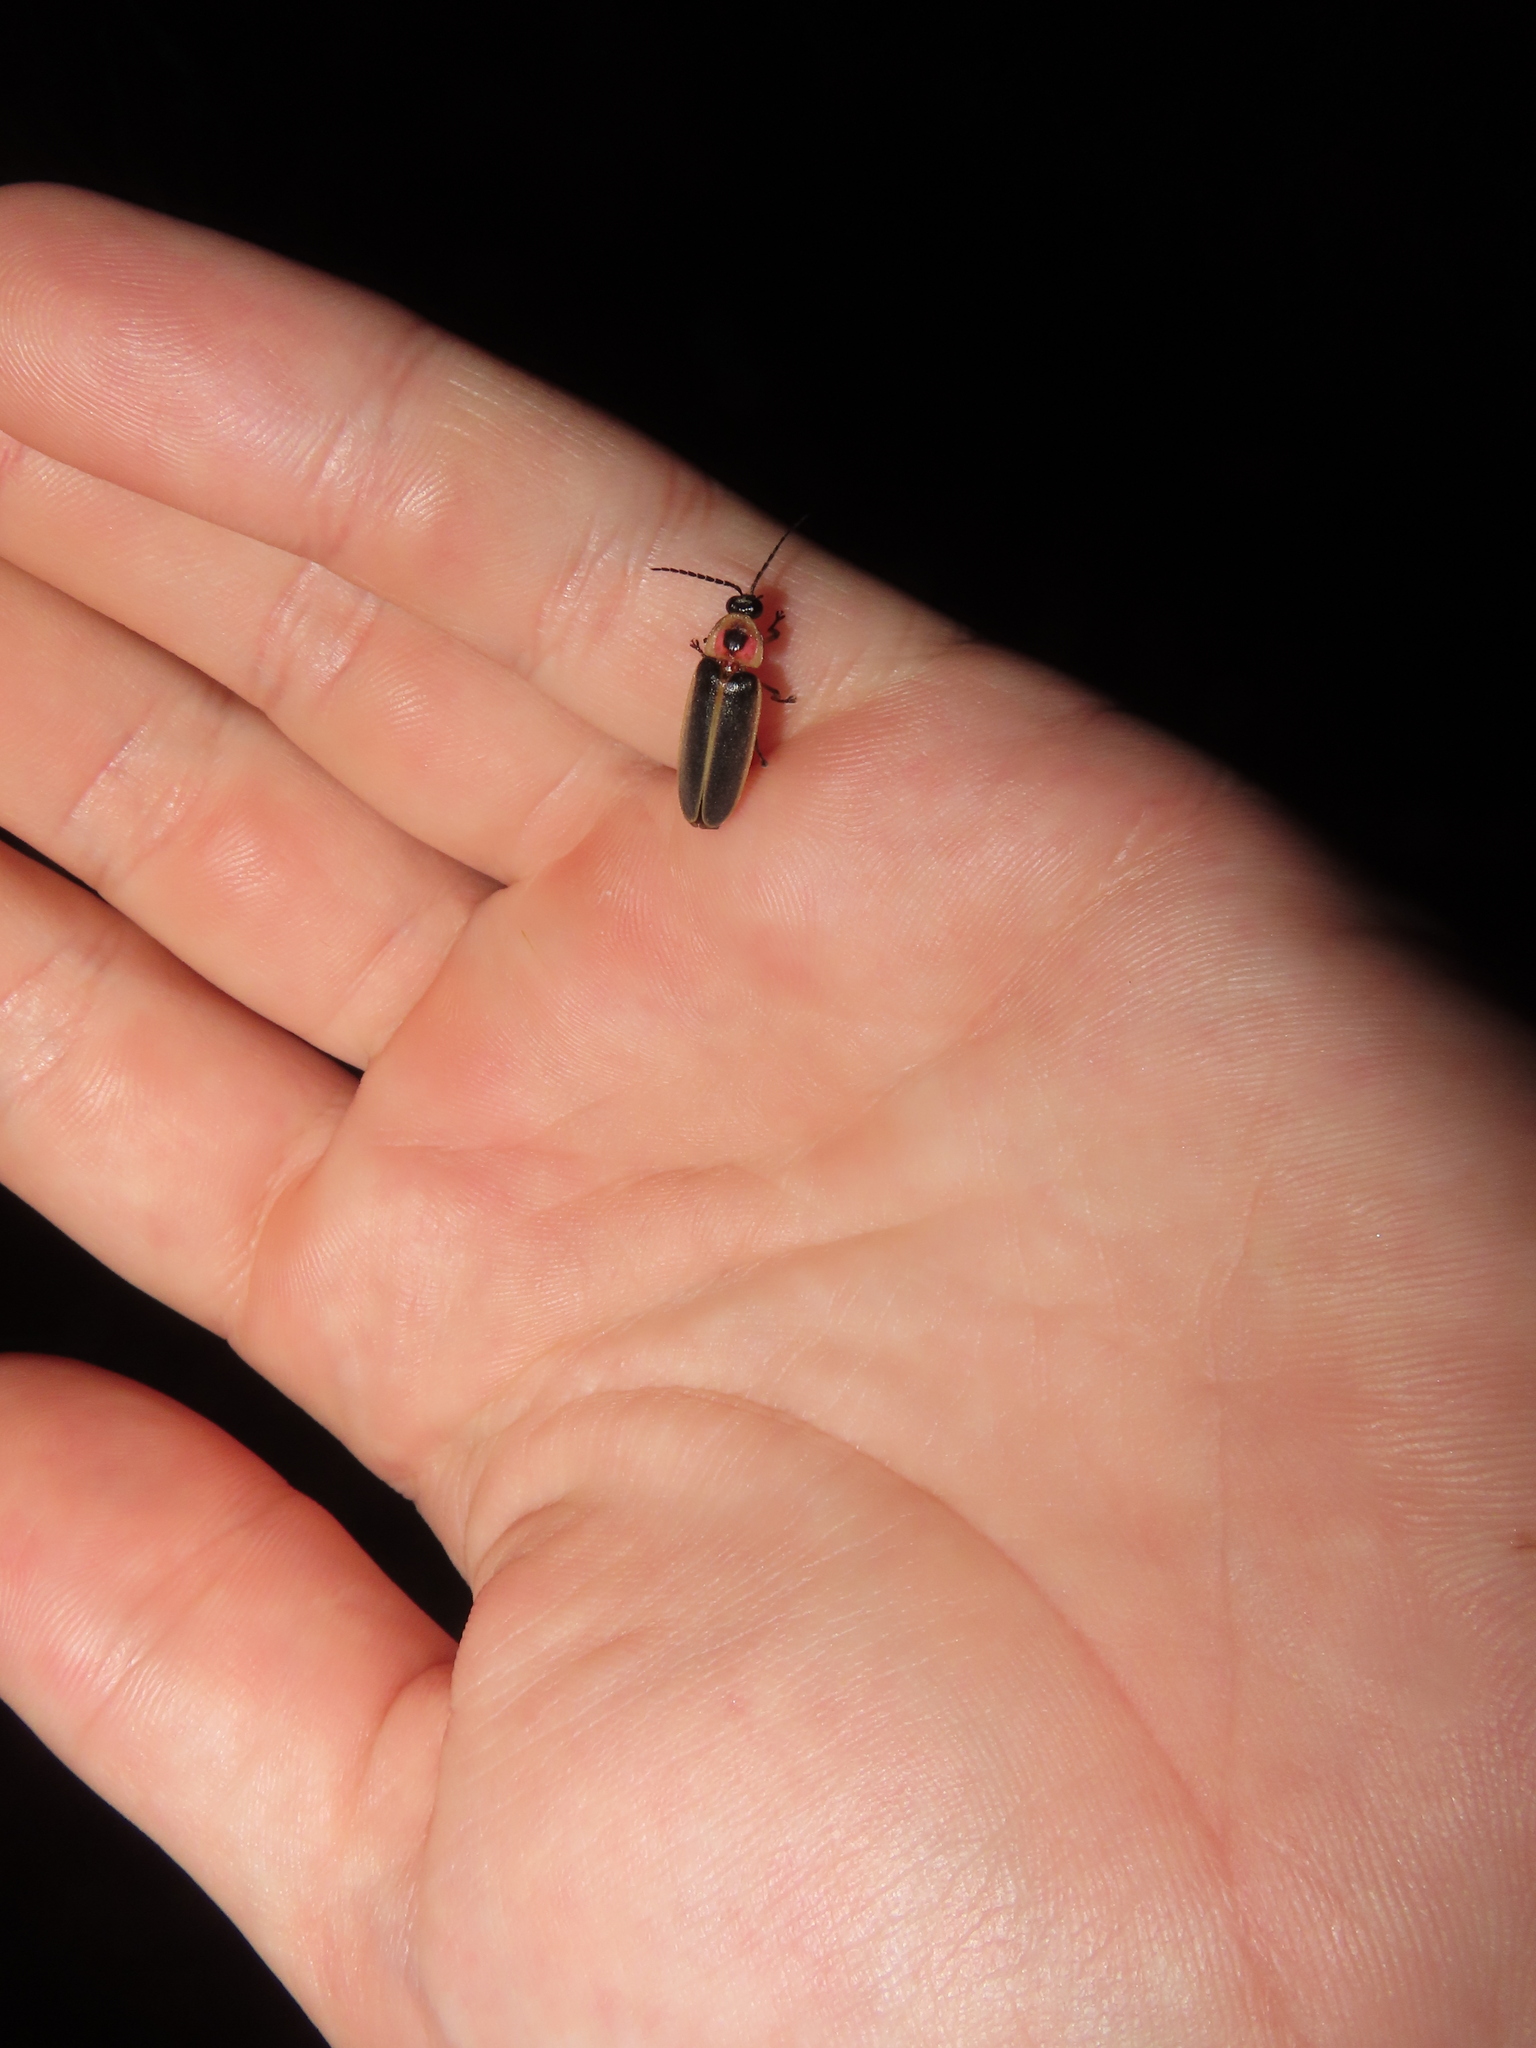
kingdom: Animalia
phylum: Arthropoda
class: Insecta
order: Coleoptera
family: Lampyridae
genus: Photinus
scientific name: Photinus pyralis
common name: Big dipper firefly
